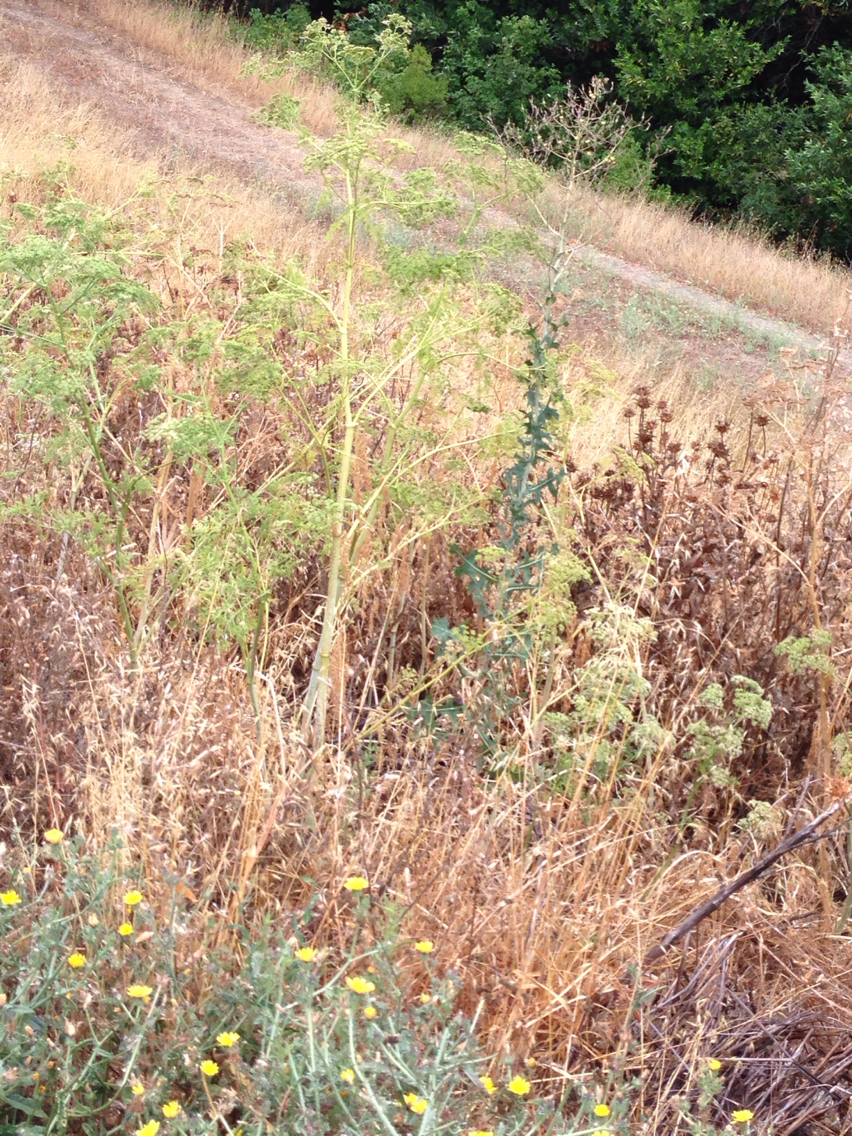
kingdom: Plantae
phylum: Tracheophyta
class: Magnoliopsida
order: Apiales
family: Apiaceae
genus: Conium
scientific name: Conium maculatum
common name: Hemlock
